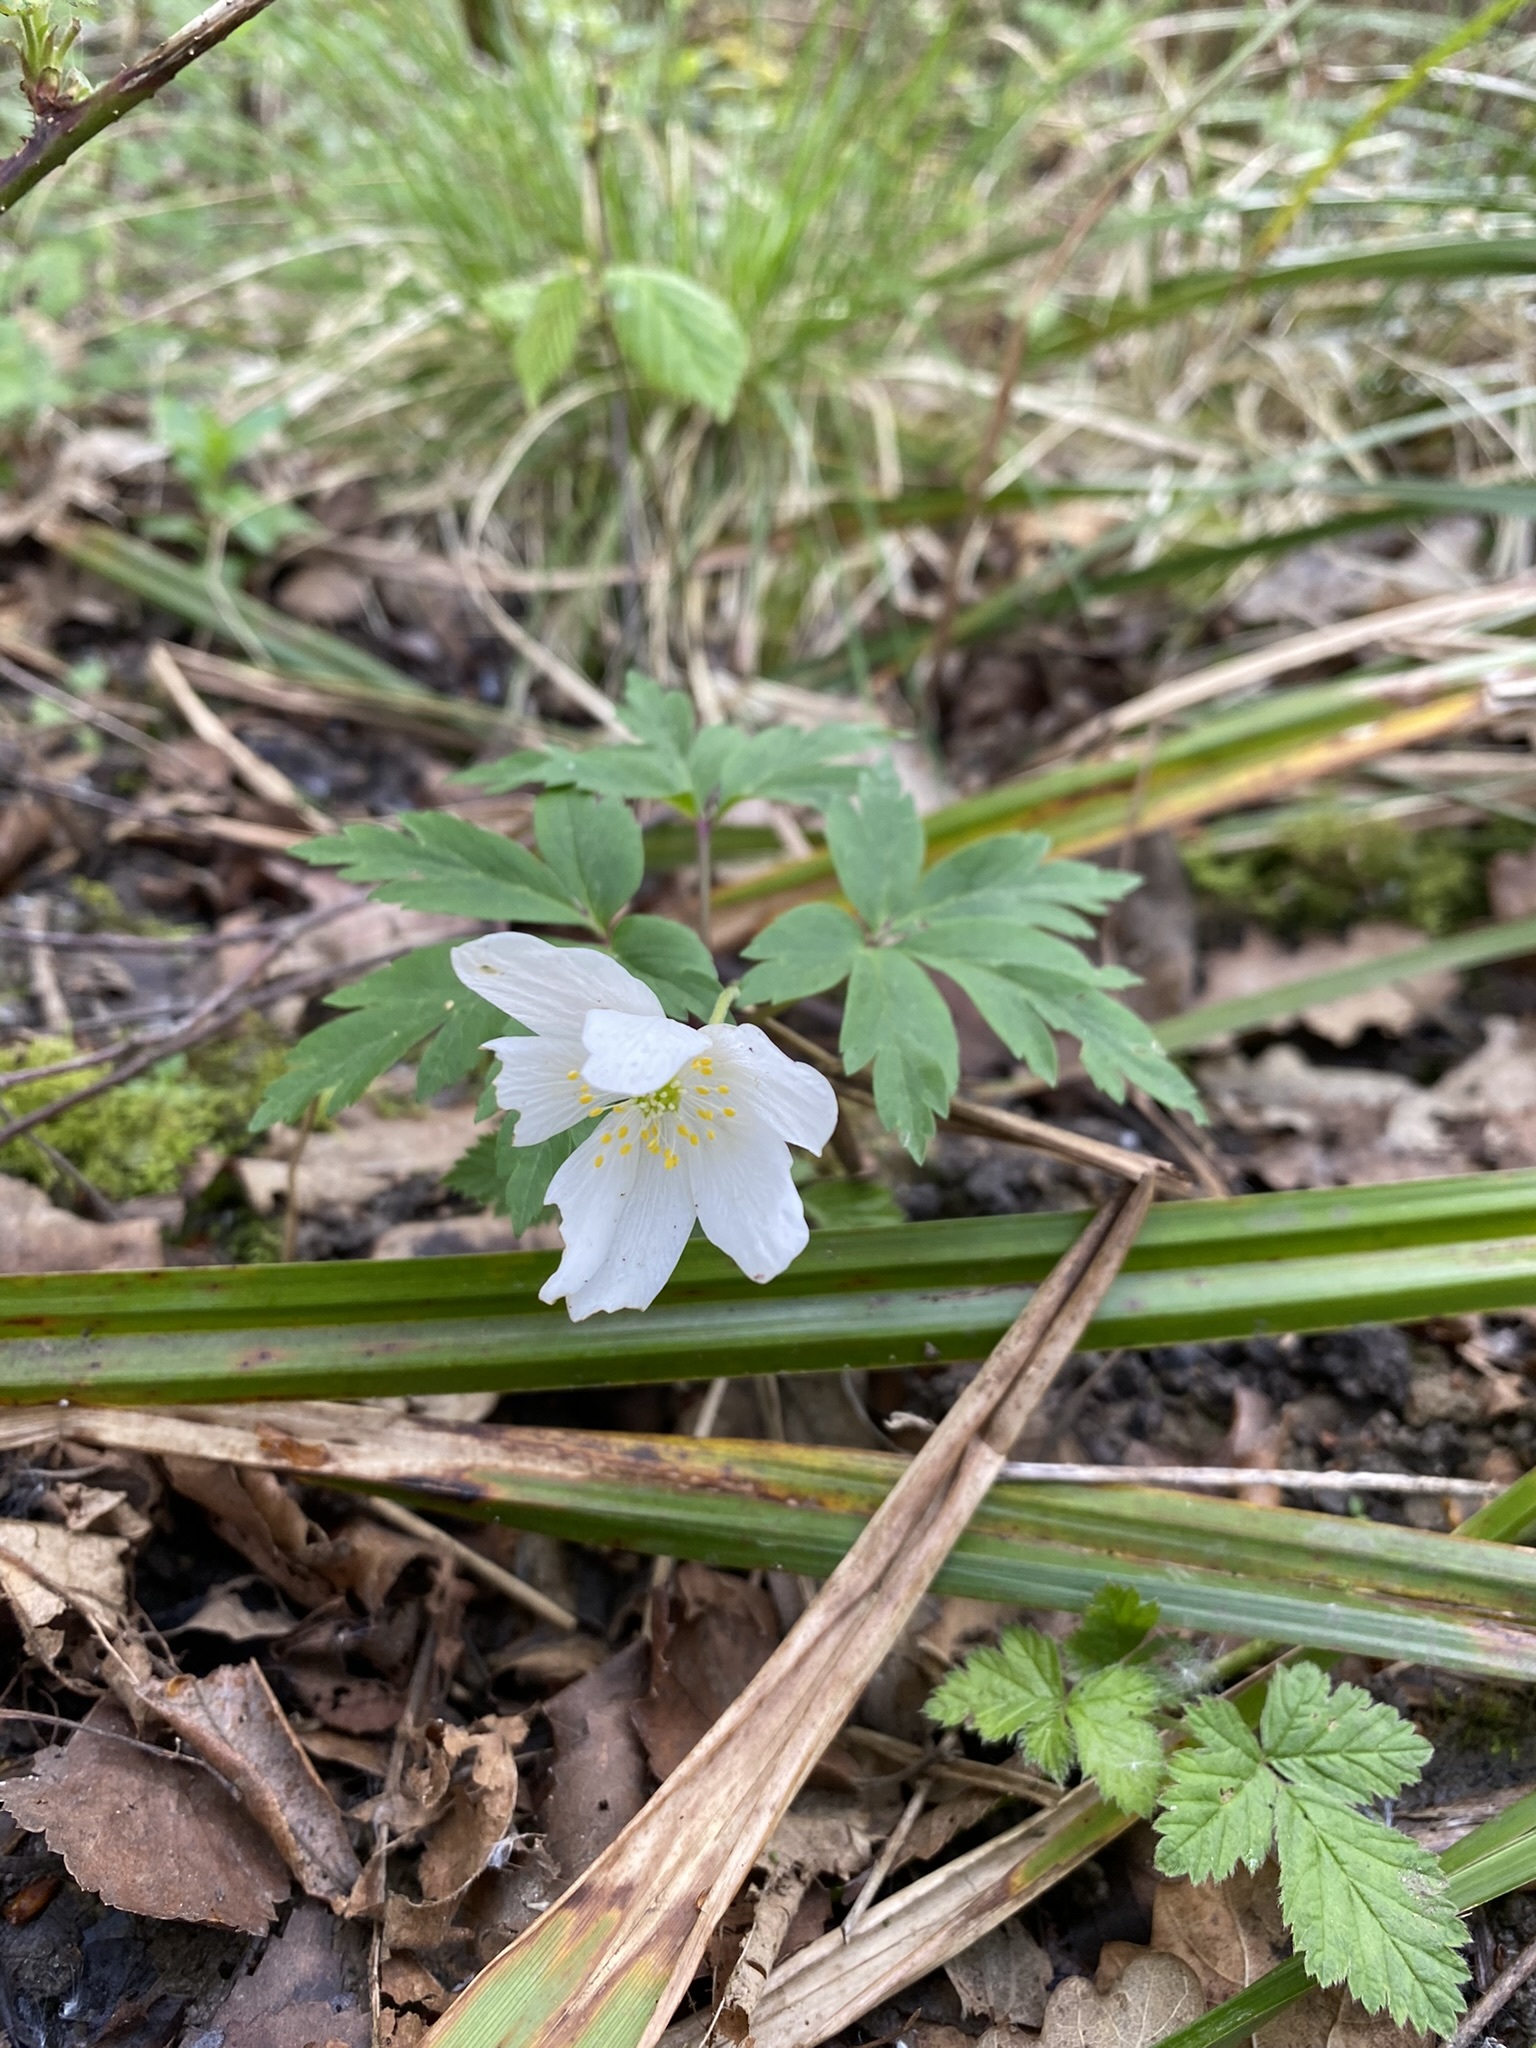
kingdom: Plantae
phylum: Tracheophyta
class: Magnoliopsida
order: Ranunculales
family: Ranunculaceae
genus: Anemone
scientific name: Anemone nemorosa
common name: Wood anemone
